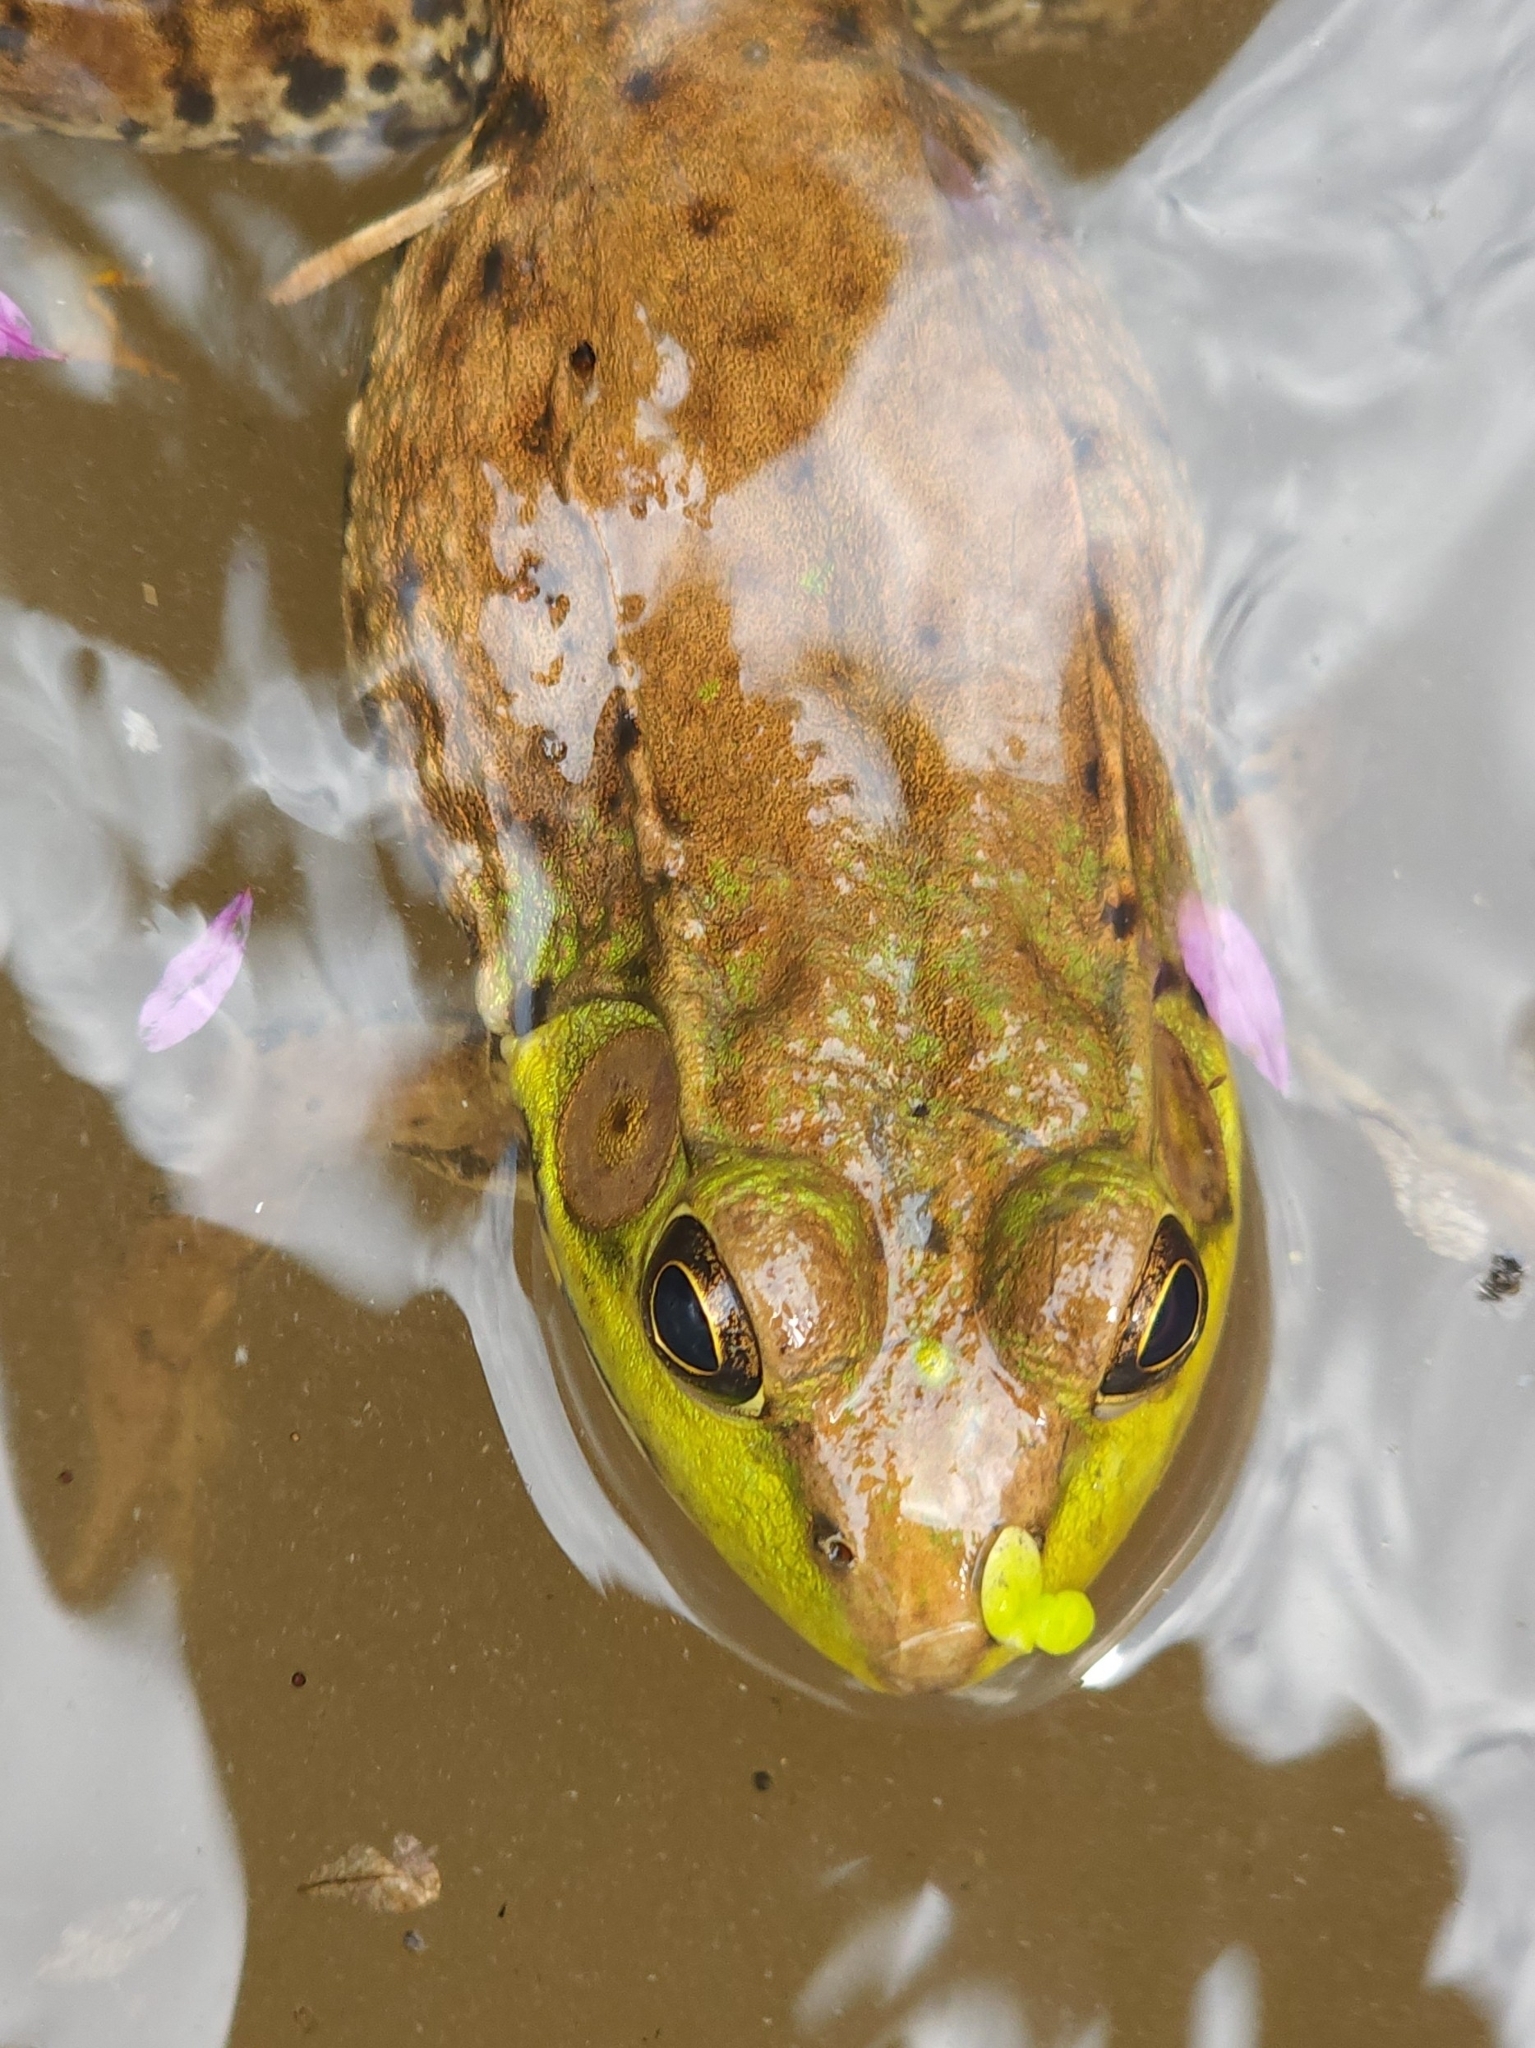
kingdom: Animalia
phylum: Chordata
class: Amphibia
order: Anura
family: Ranidae
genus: Lithobates
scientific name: Lithobates clamitans
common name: Green frog
